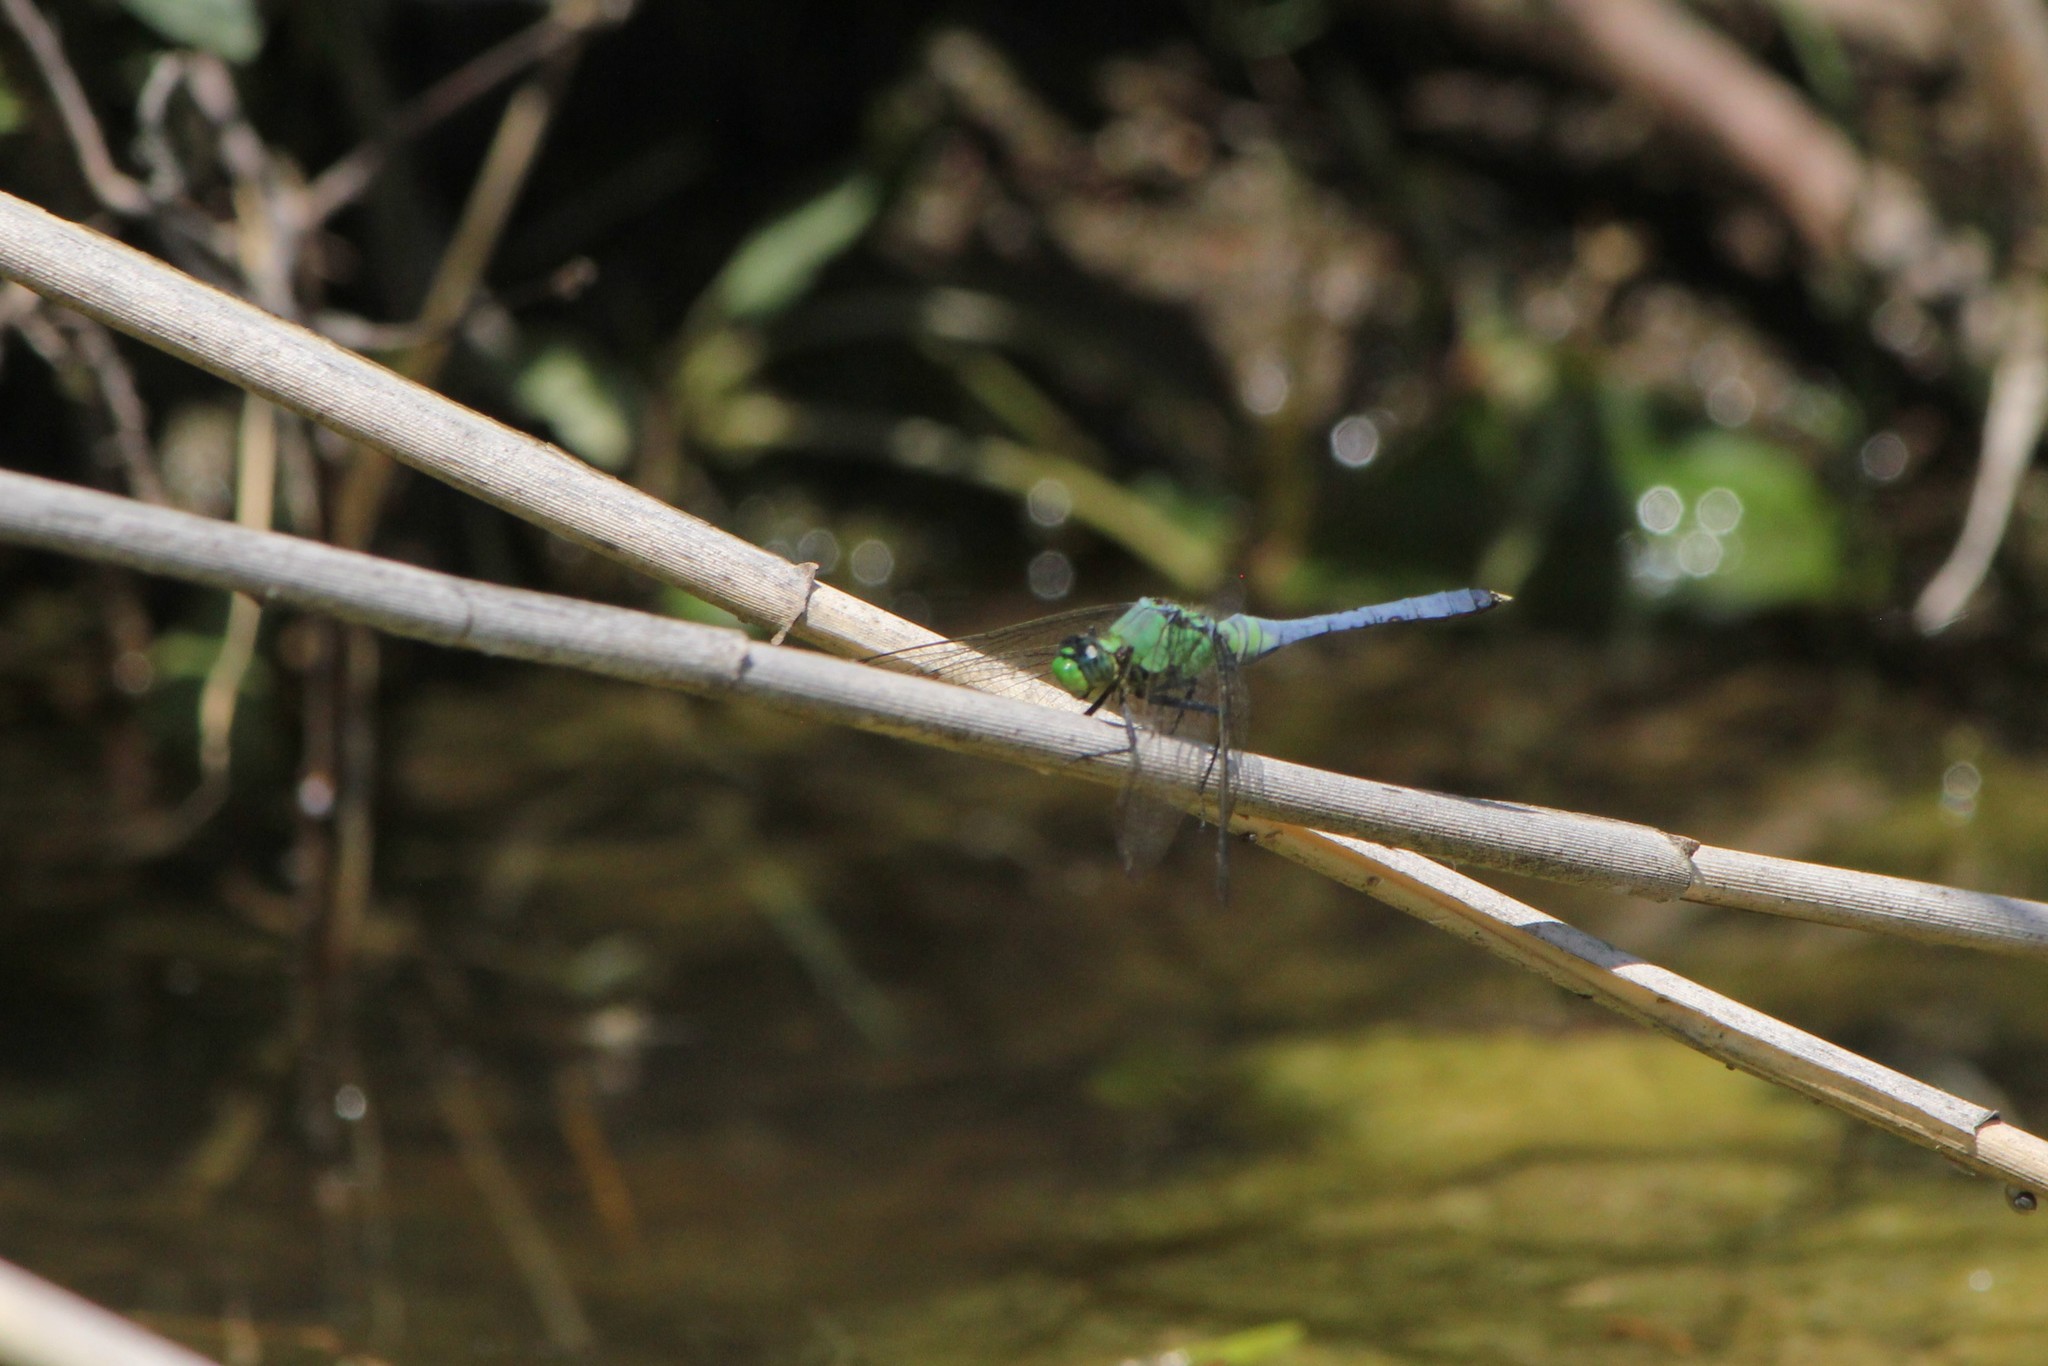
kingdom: Animalia
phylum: Arthropoda
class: Insecta
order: Odonata
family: Libellulidae
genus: Erythemis
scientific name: Erythemis simplicicollis
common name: Eastern pondhawk
